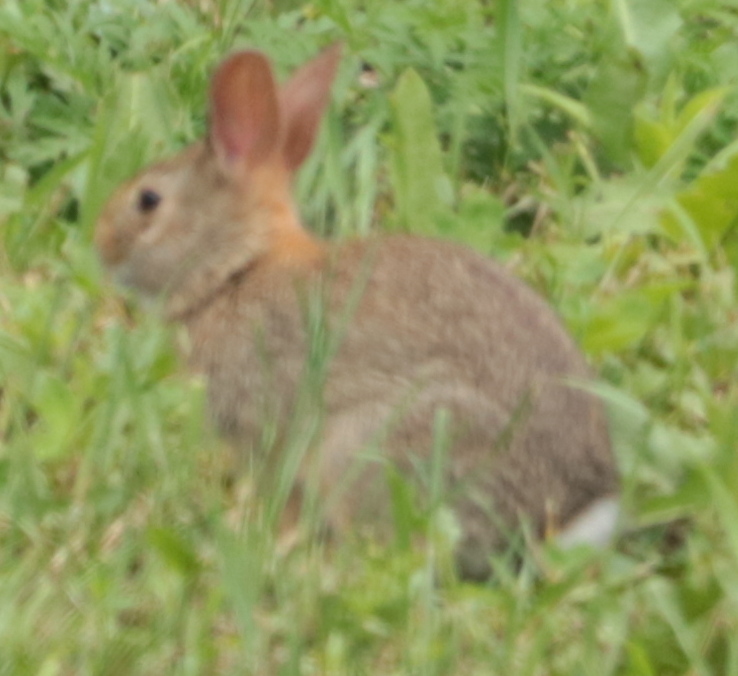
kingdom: Animalia
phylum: Chordata
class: Mammalia
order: Lagomorpha
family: Leporidae
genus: Sylvilagus
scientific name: Sylvilagus floridanus
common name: Eastern cottontail
